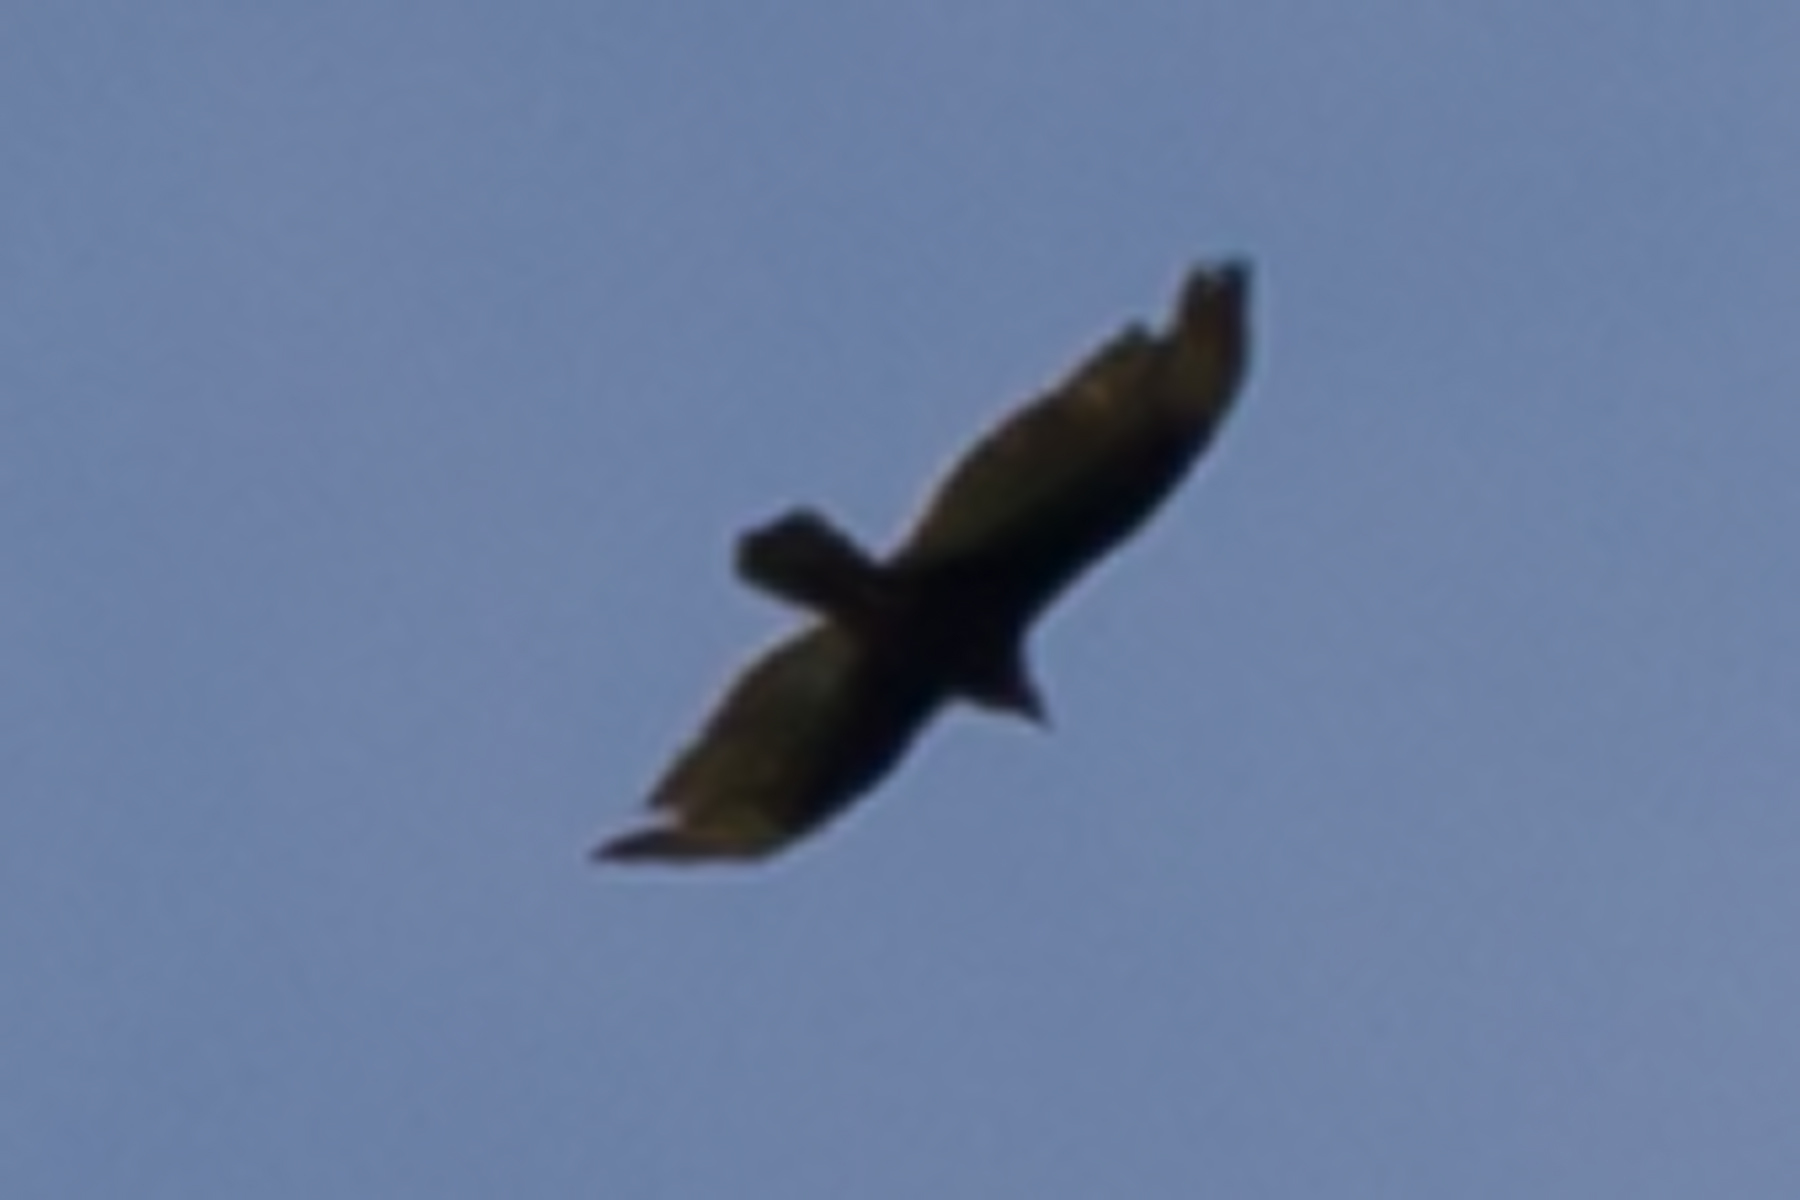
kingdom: Animalia
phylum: Chordata
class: Aves
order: Accipitriformes
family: Cathartidae
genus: Cathartes
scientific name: Cathartes aura
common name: Turkey vulture
